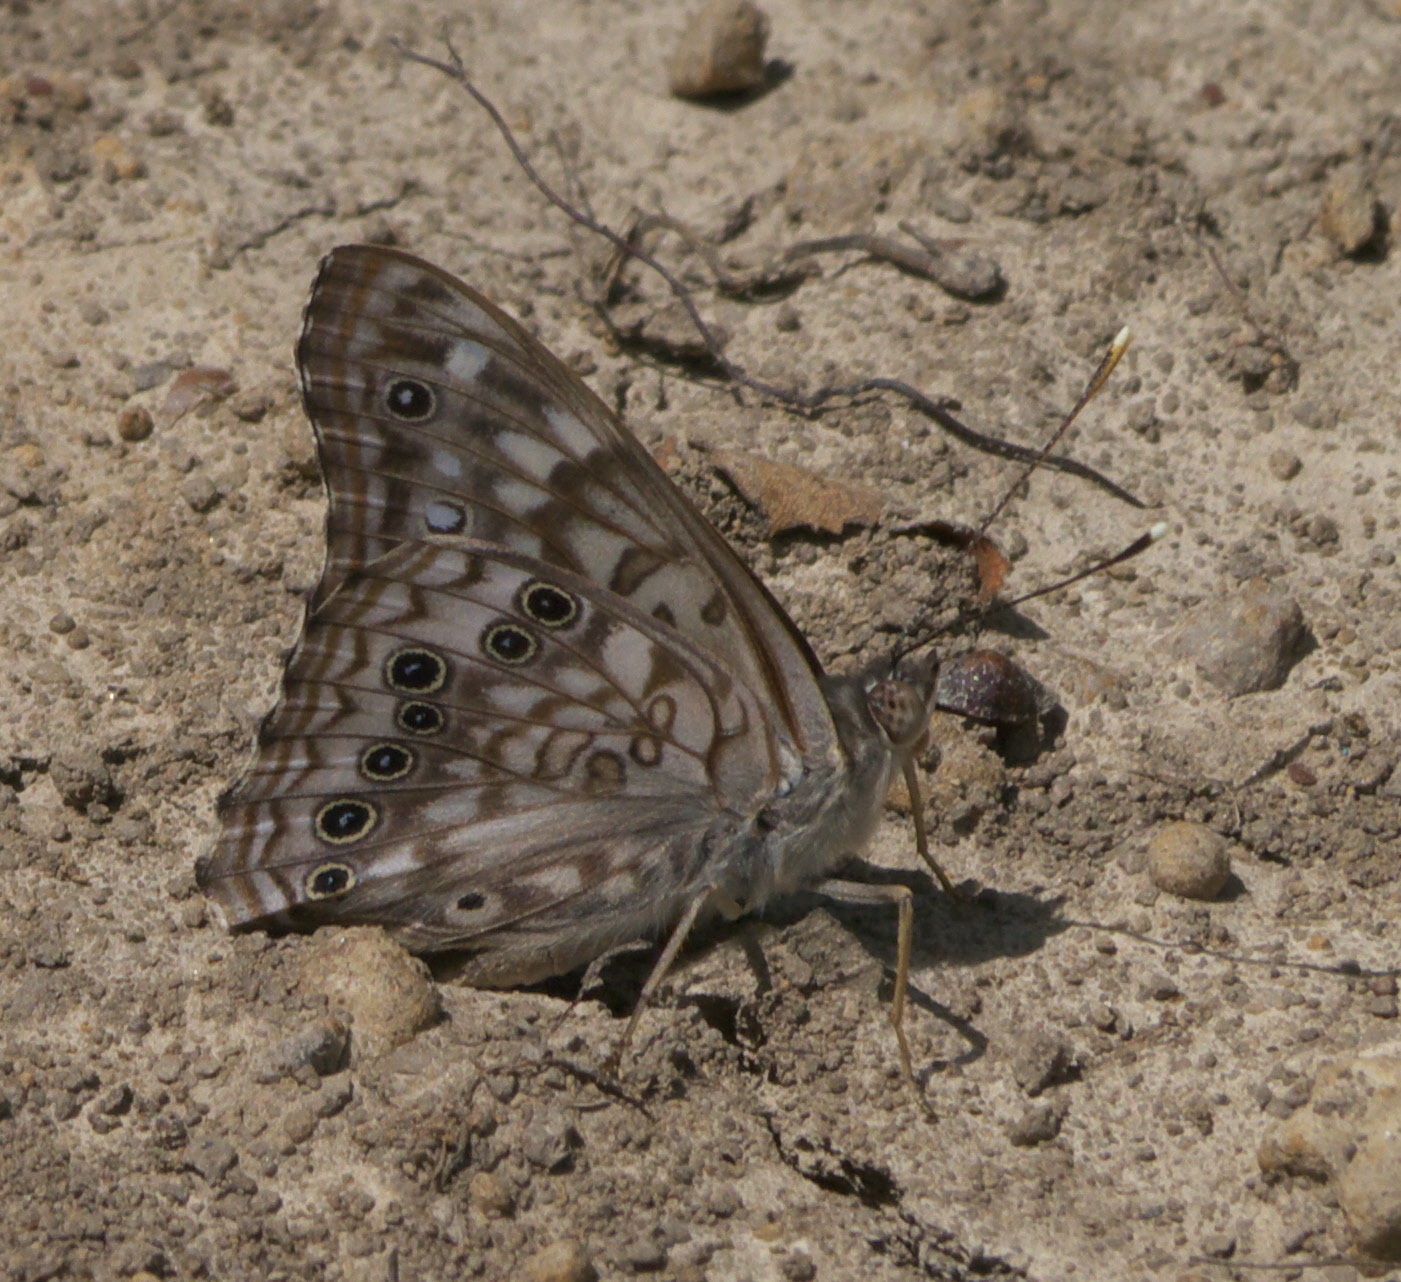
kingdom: Animalia
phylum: Arthropoda
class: Insecta
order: Lepidoptera
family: Nymphalidae
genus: Asterocampa
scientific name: Asterocampa leilia
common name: Empress leilia
